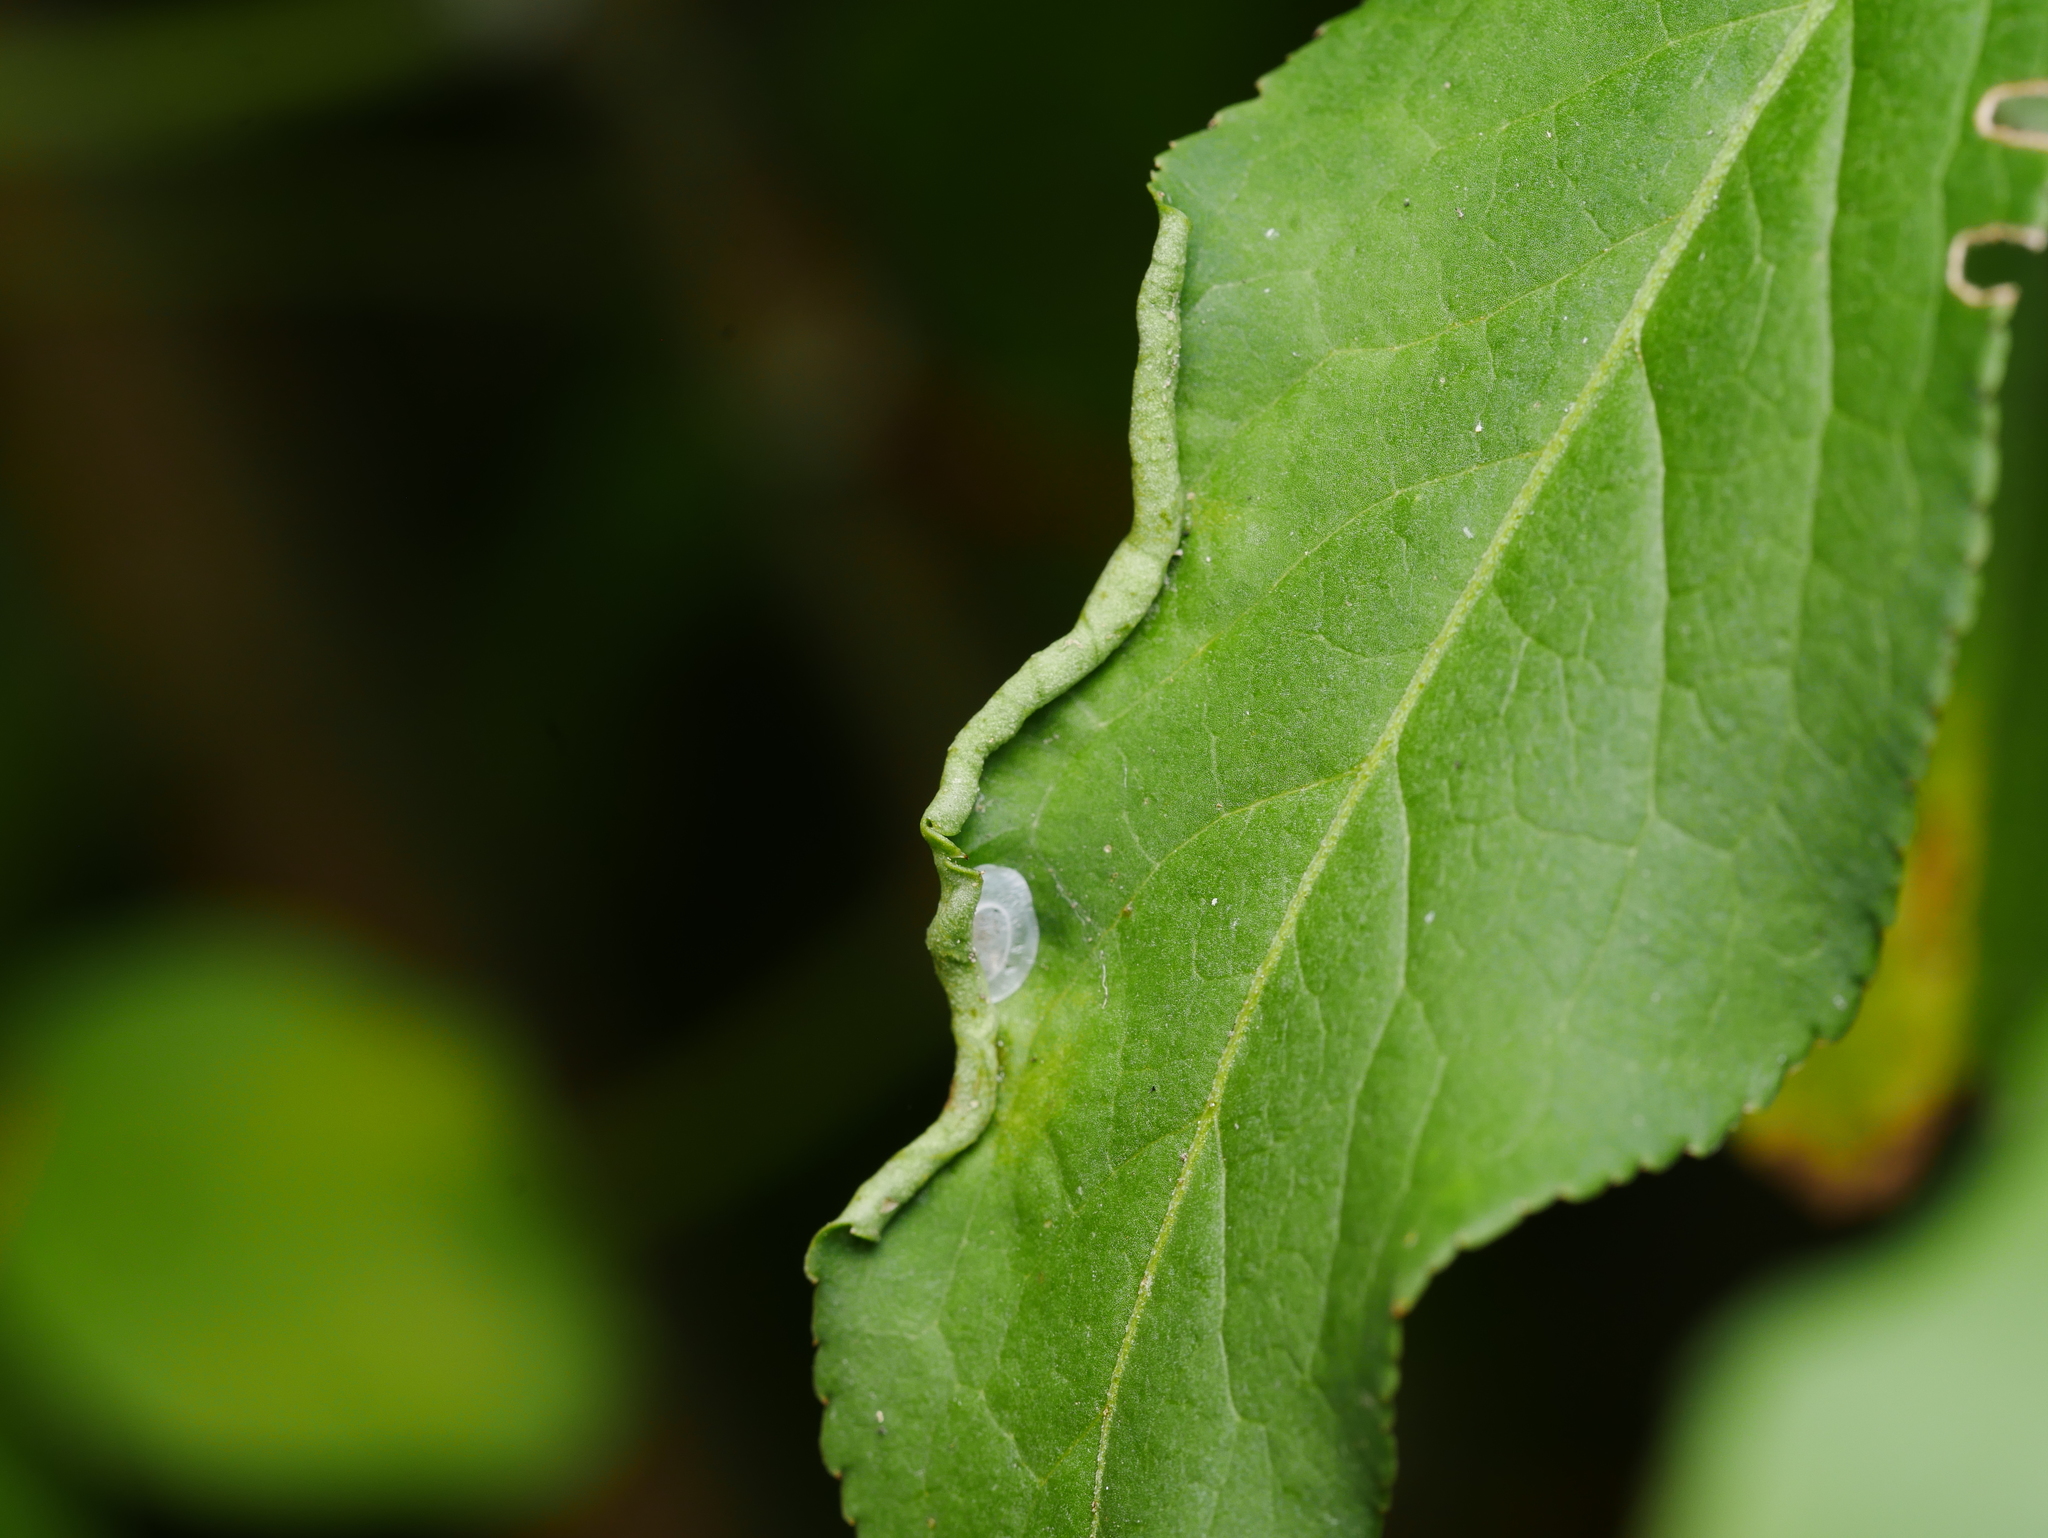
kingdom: Animalia
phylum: Arthropoda
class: Arachnida
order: Trombidiformes
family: Eriophyidae
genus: Stenacis
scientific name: Stenacis evonymi
